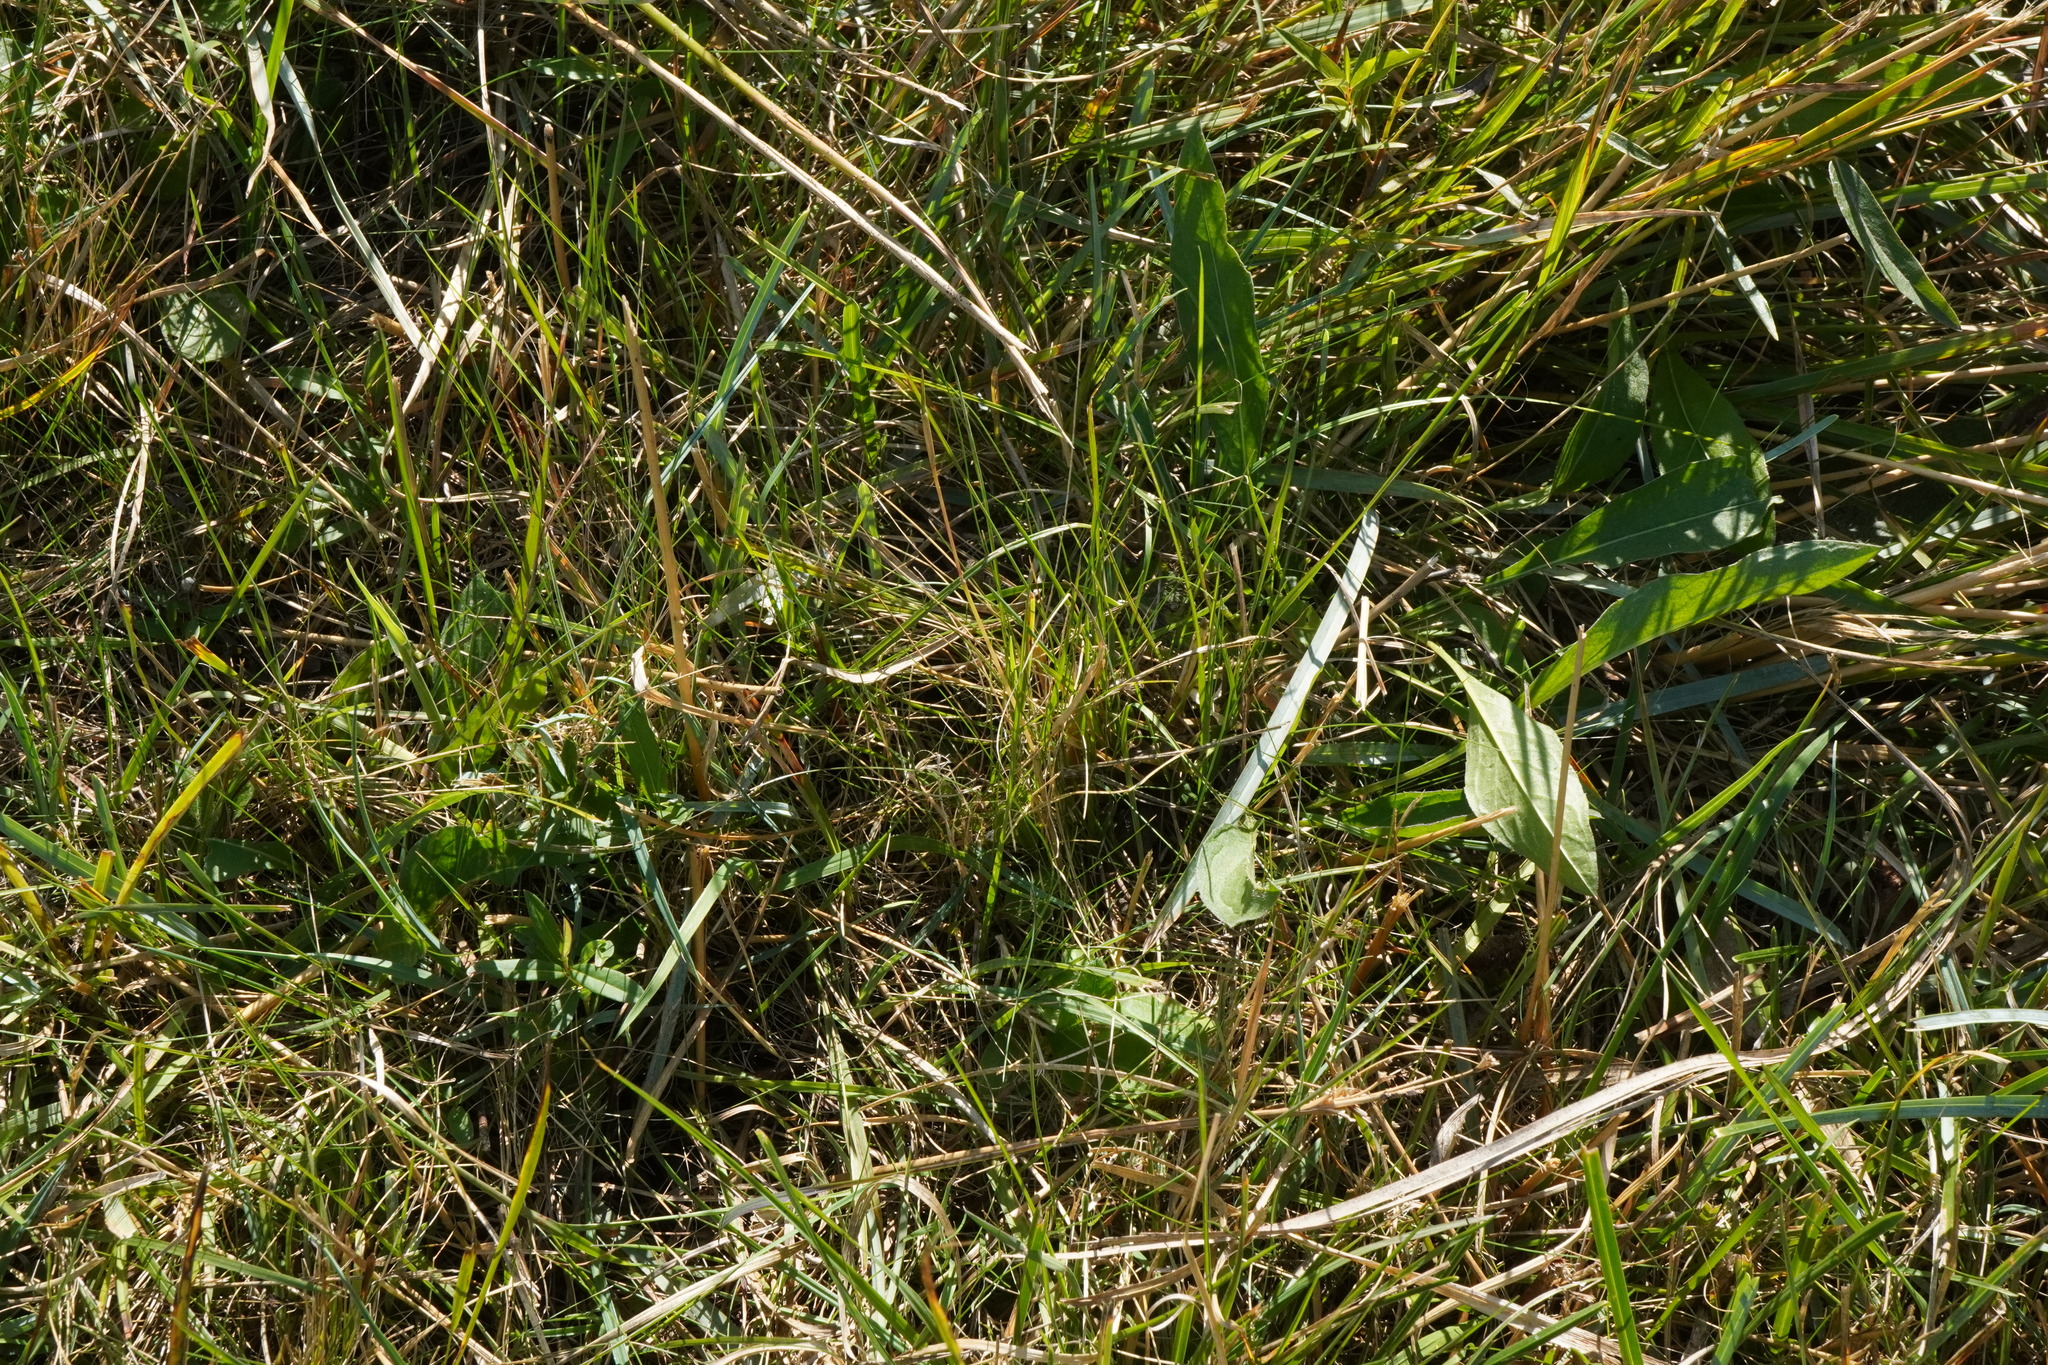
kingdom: Plantae
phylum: Tracheophyta
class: Liliopsida
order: Poales
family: Poaceae
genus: Festuca
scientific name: Festuca trichophylla
